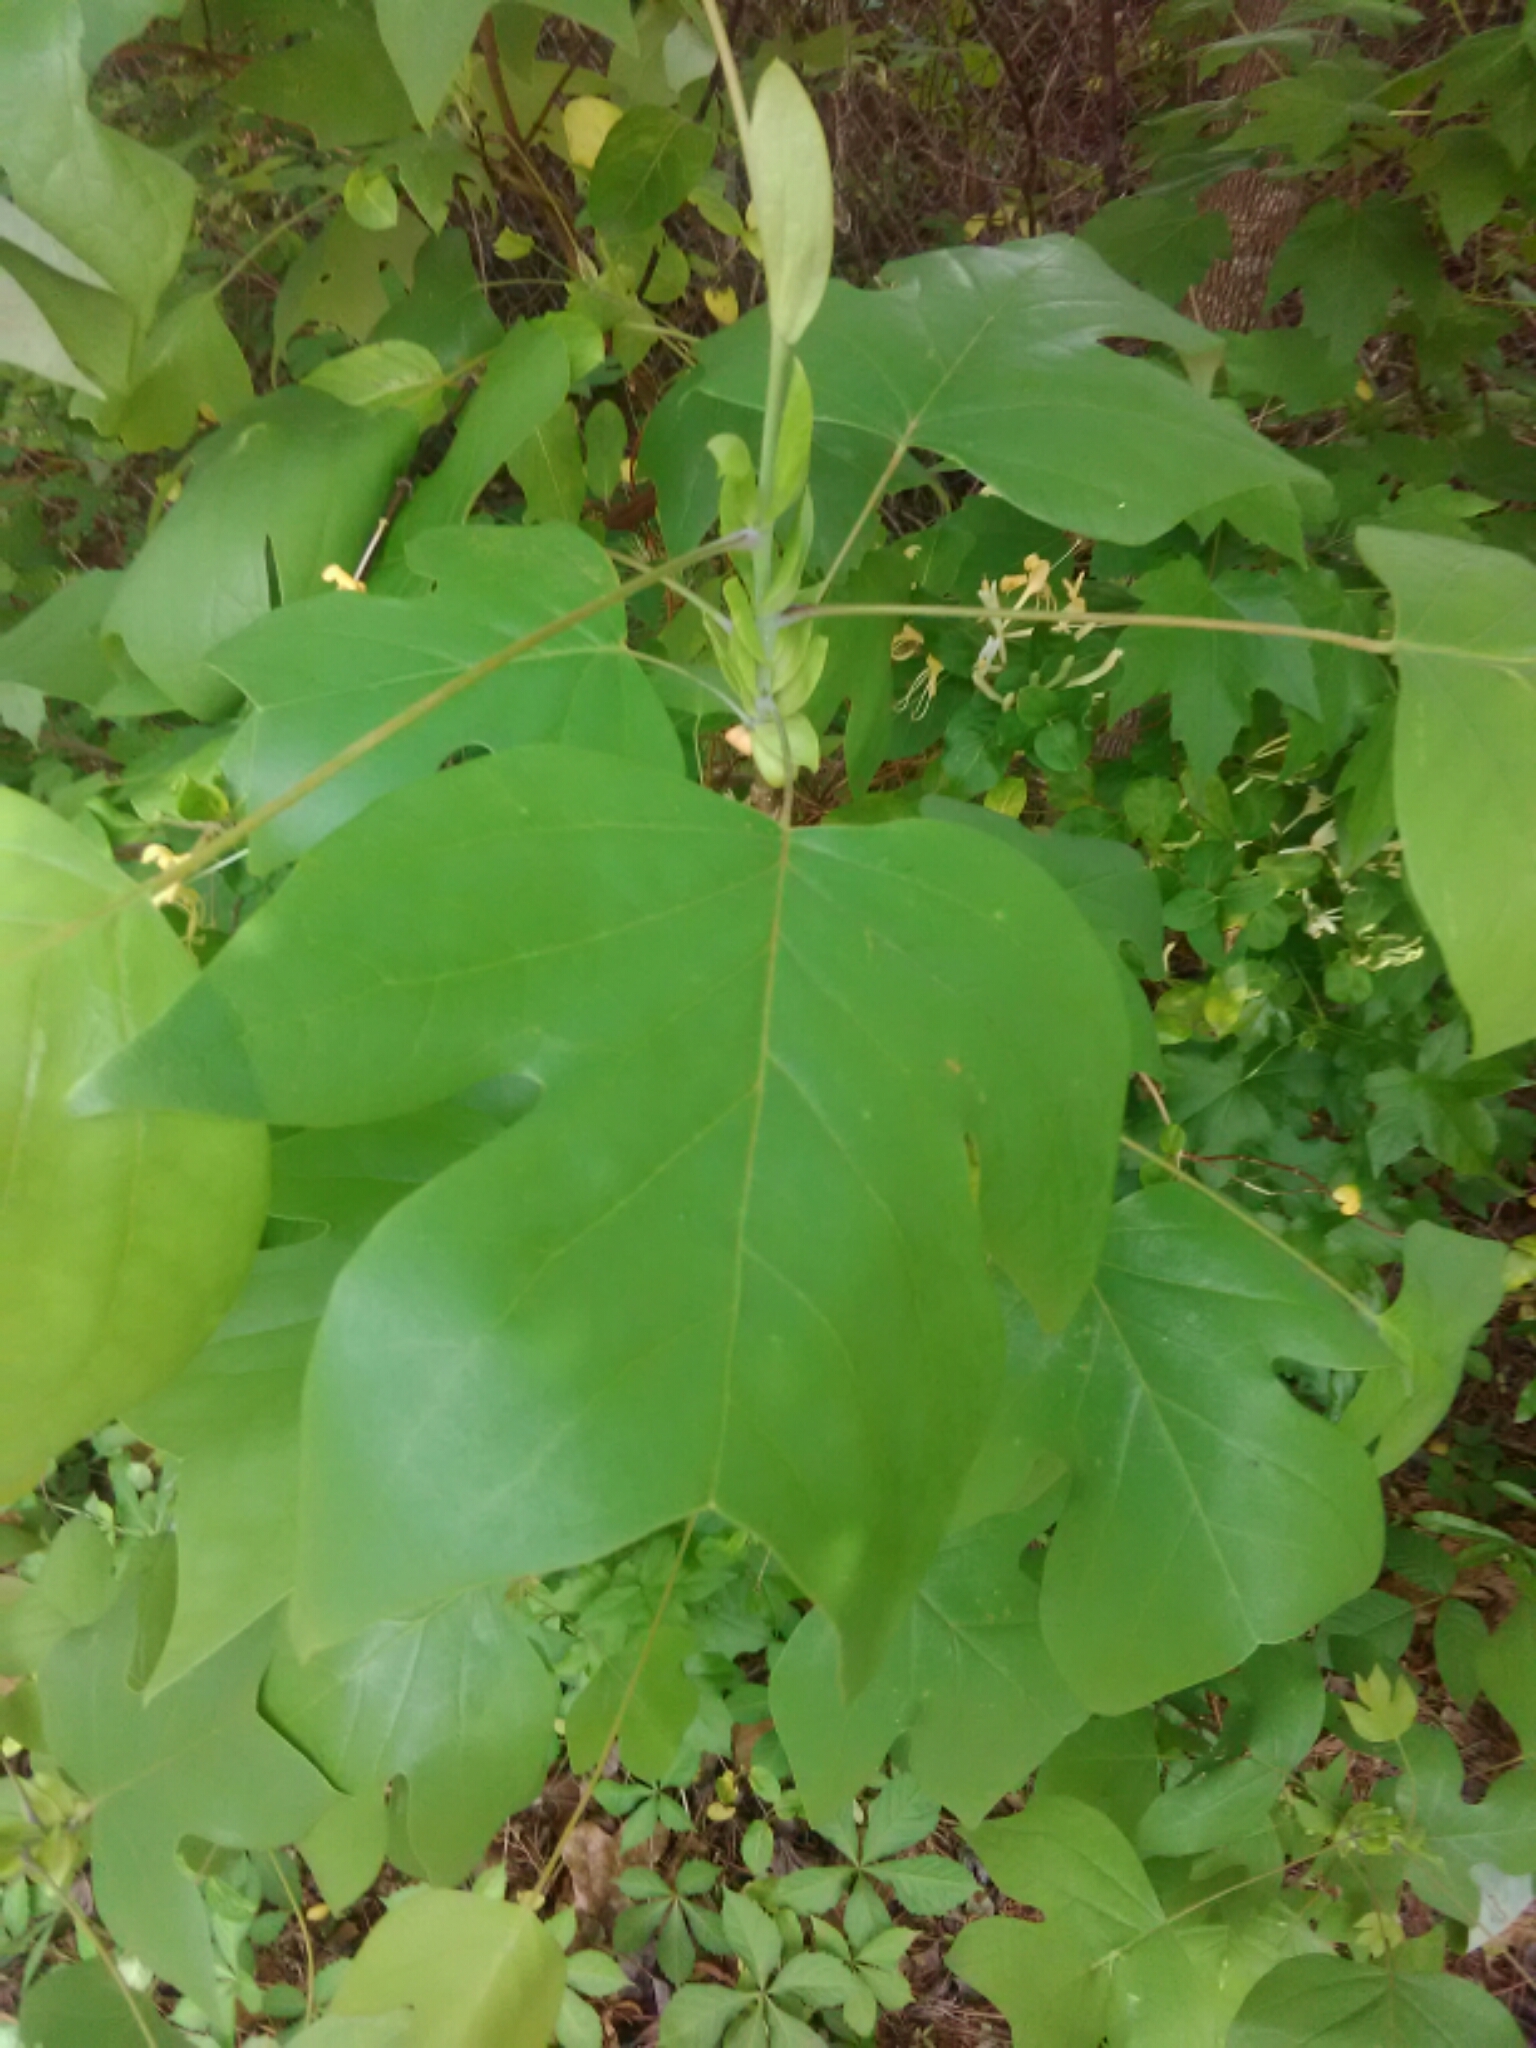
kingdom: Plantae
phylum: Tracheophyta
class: Magnoliopsida
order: Magnoliales
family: Magnoliaceae
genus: Liriodendron
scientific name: Liriodendron tulipifera
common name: Tulip tree
